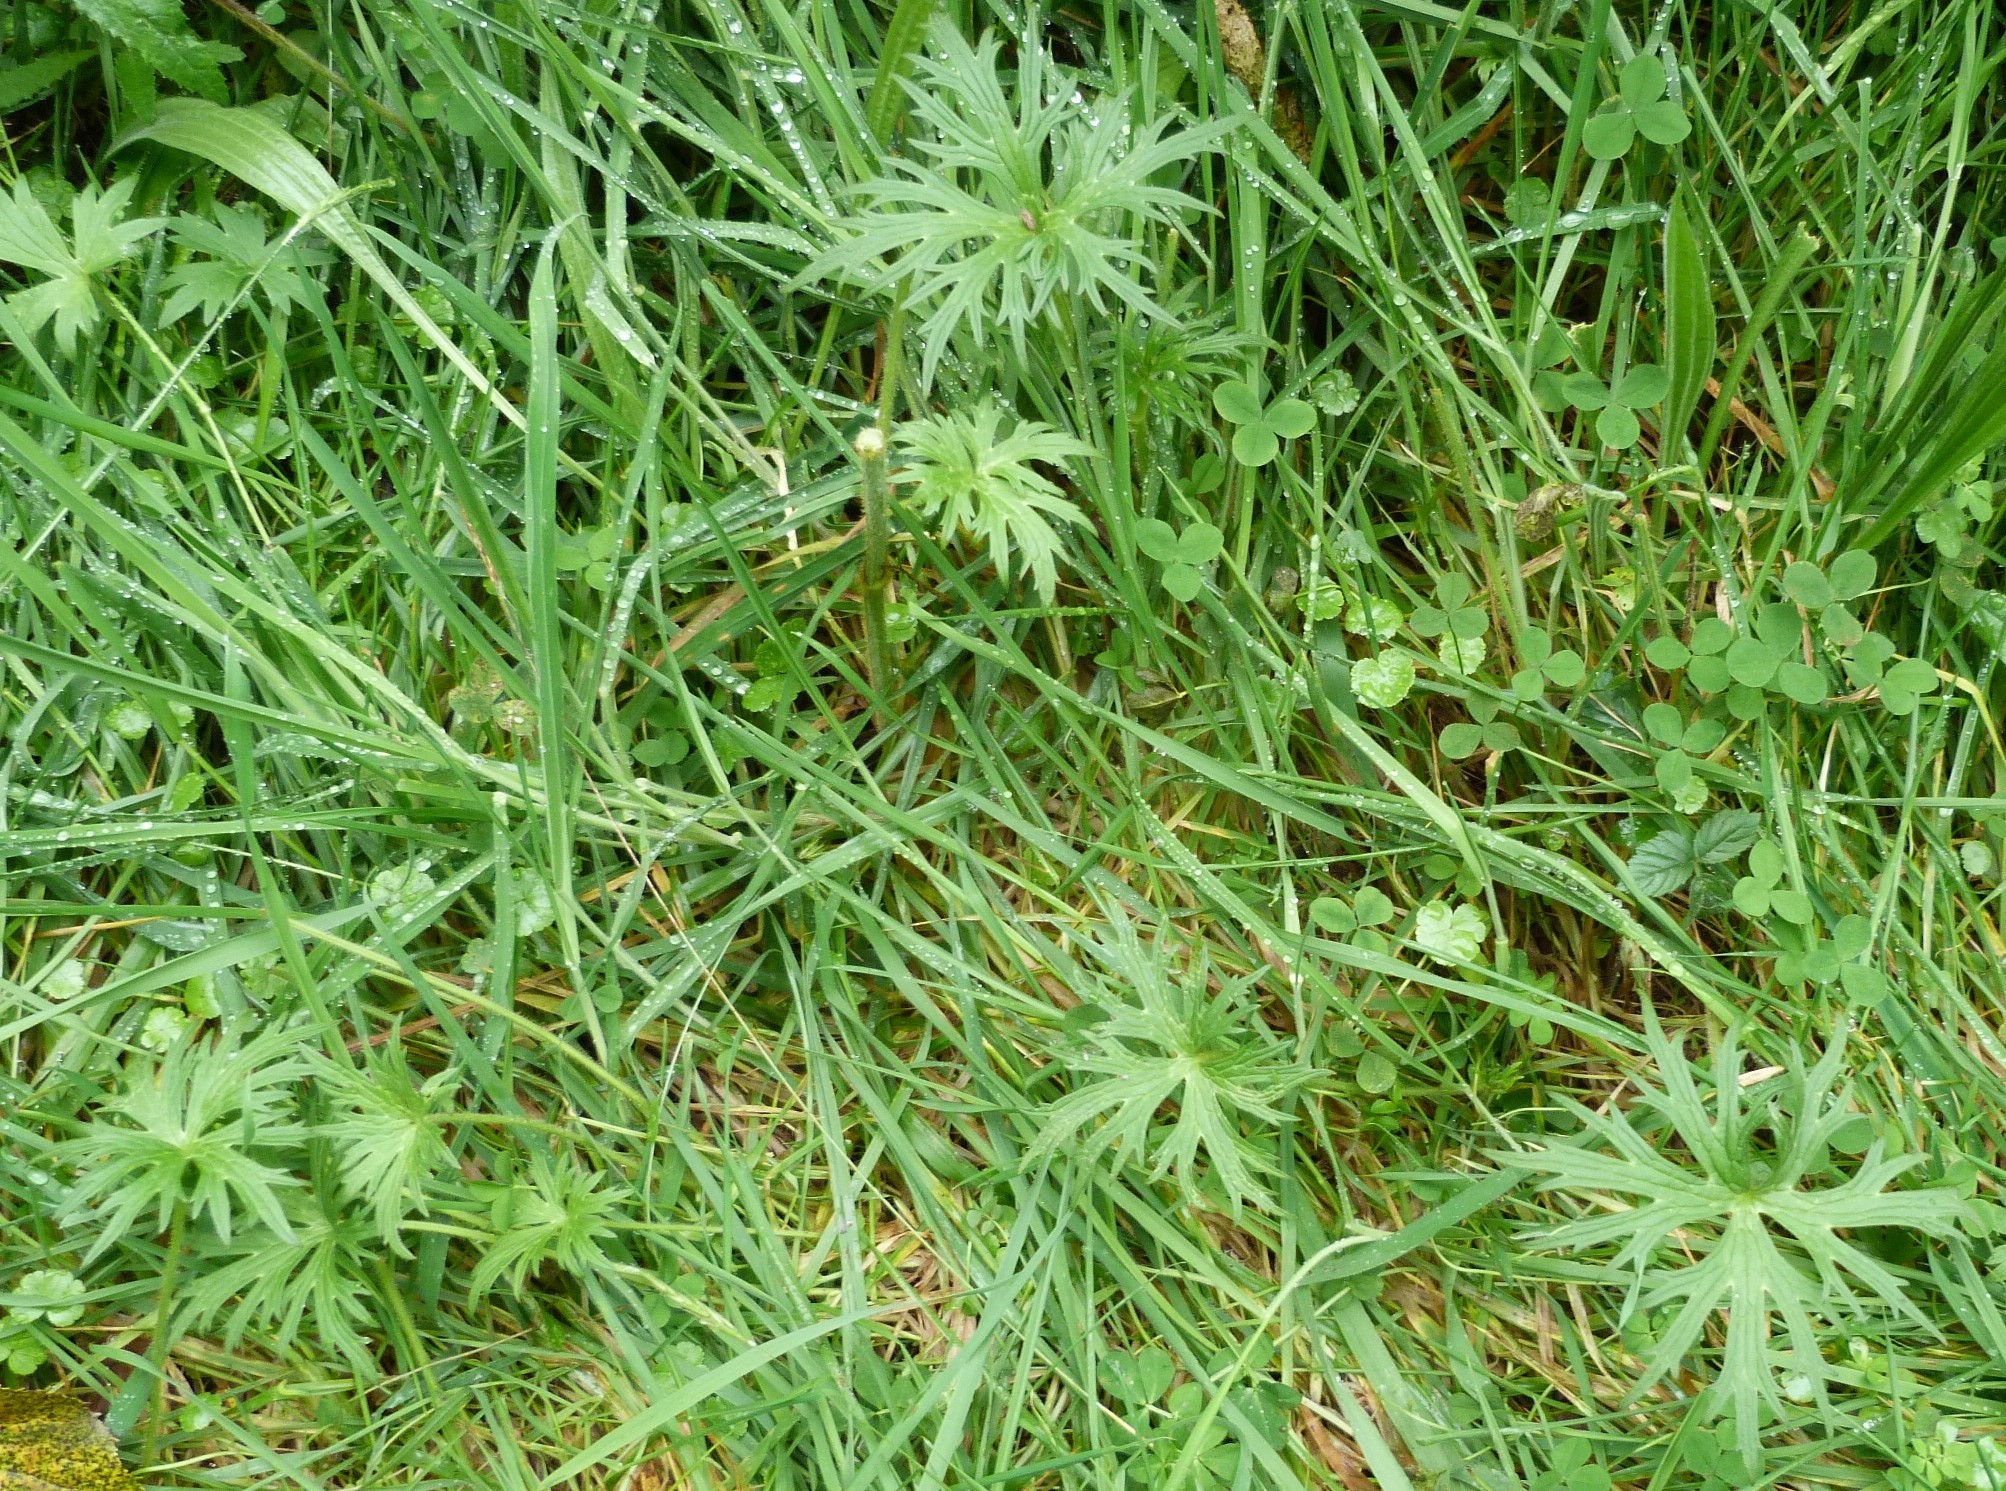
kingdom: Plantae
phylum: Tracheophyta
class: Magnoliopsida
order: Ranunculales
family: Ranunculaceae
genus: Ranunculus
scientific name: Ranunculus acris
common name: Meadow buttercup
